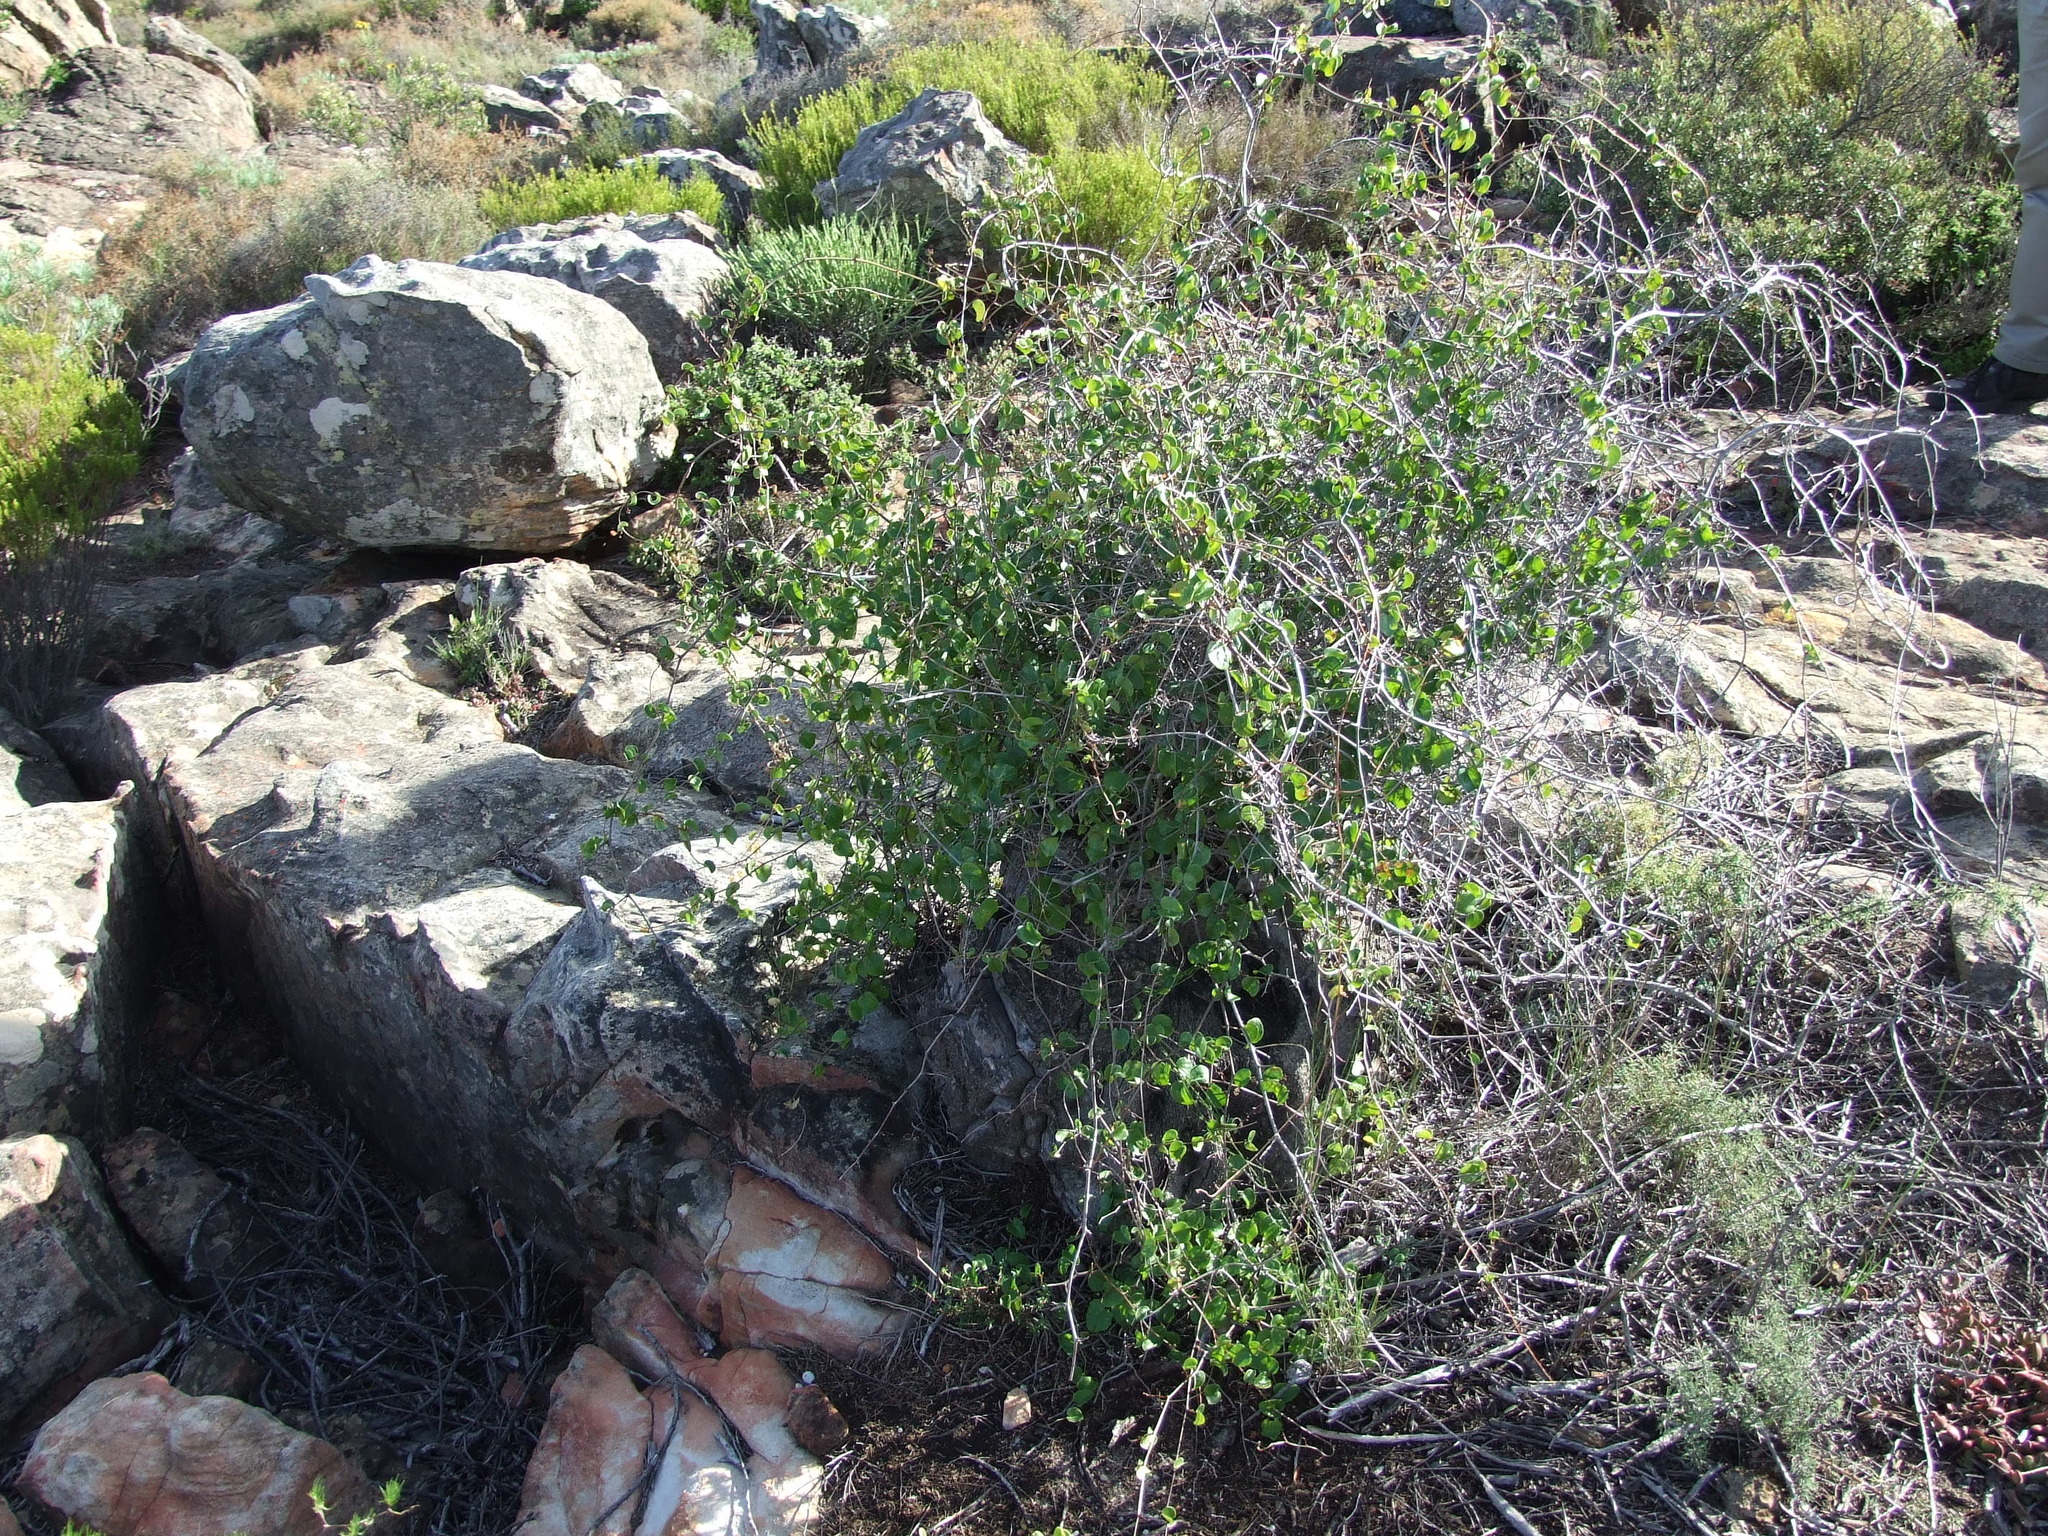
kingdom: Plantae
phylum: Tracheophyta
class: Liliopsida
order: Dioscoreales
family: Dioscoreaceae
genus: Dioscorea
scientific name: Dioscorea elephantipes
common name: Elephant's foot yam
